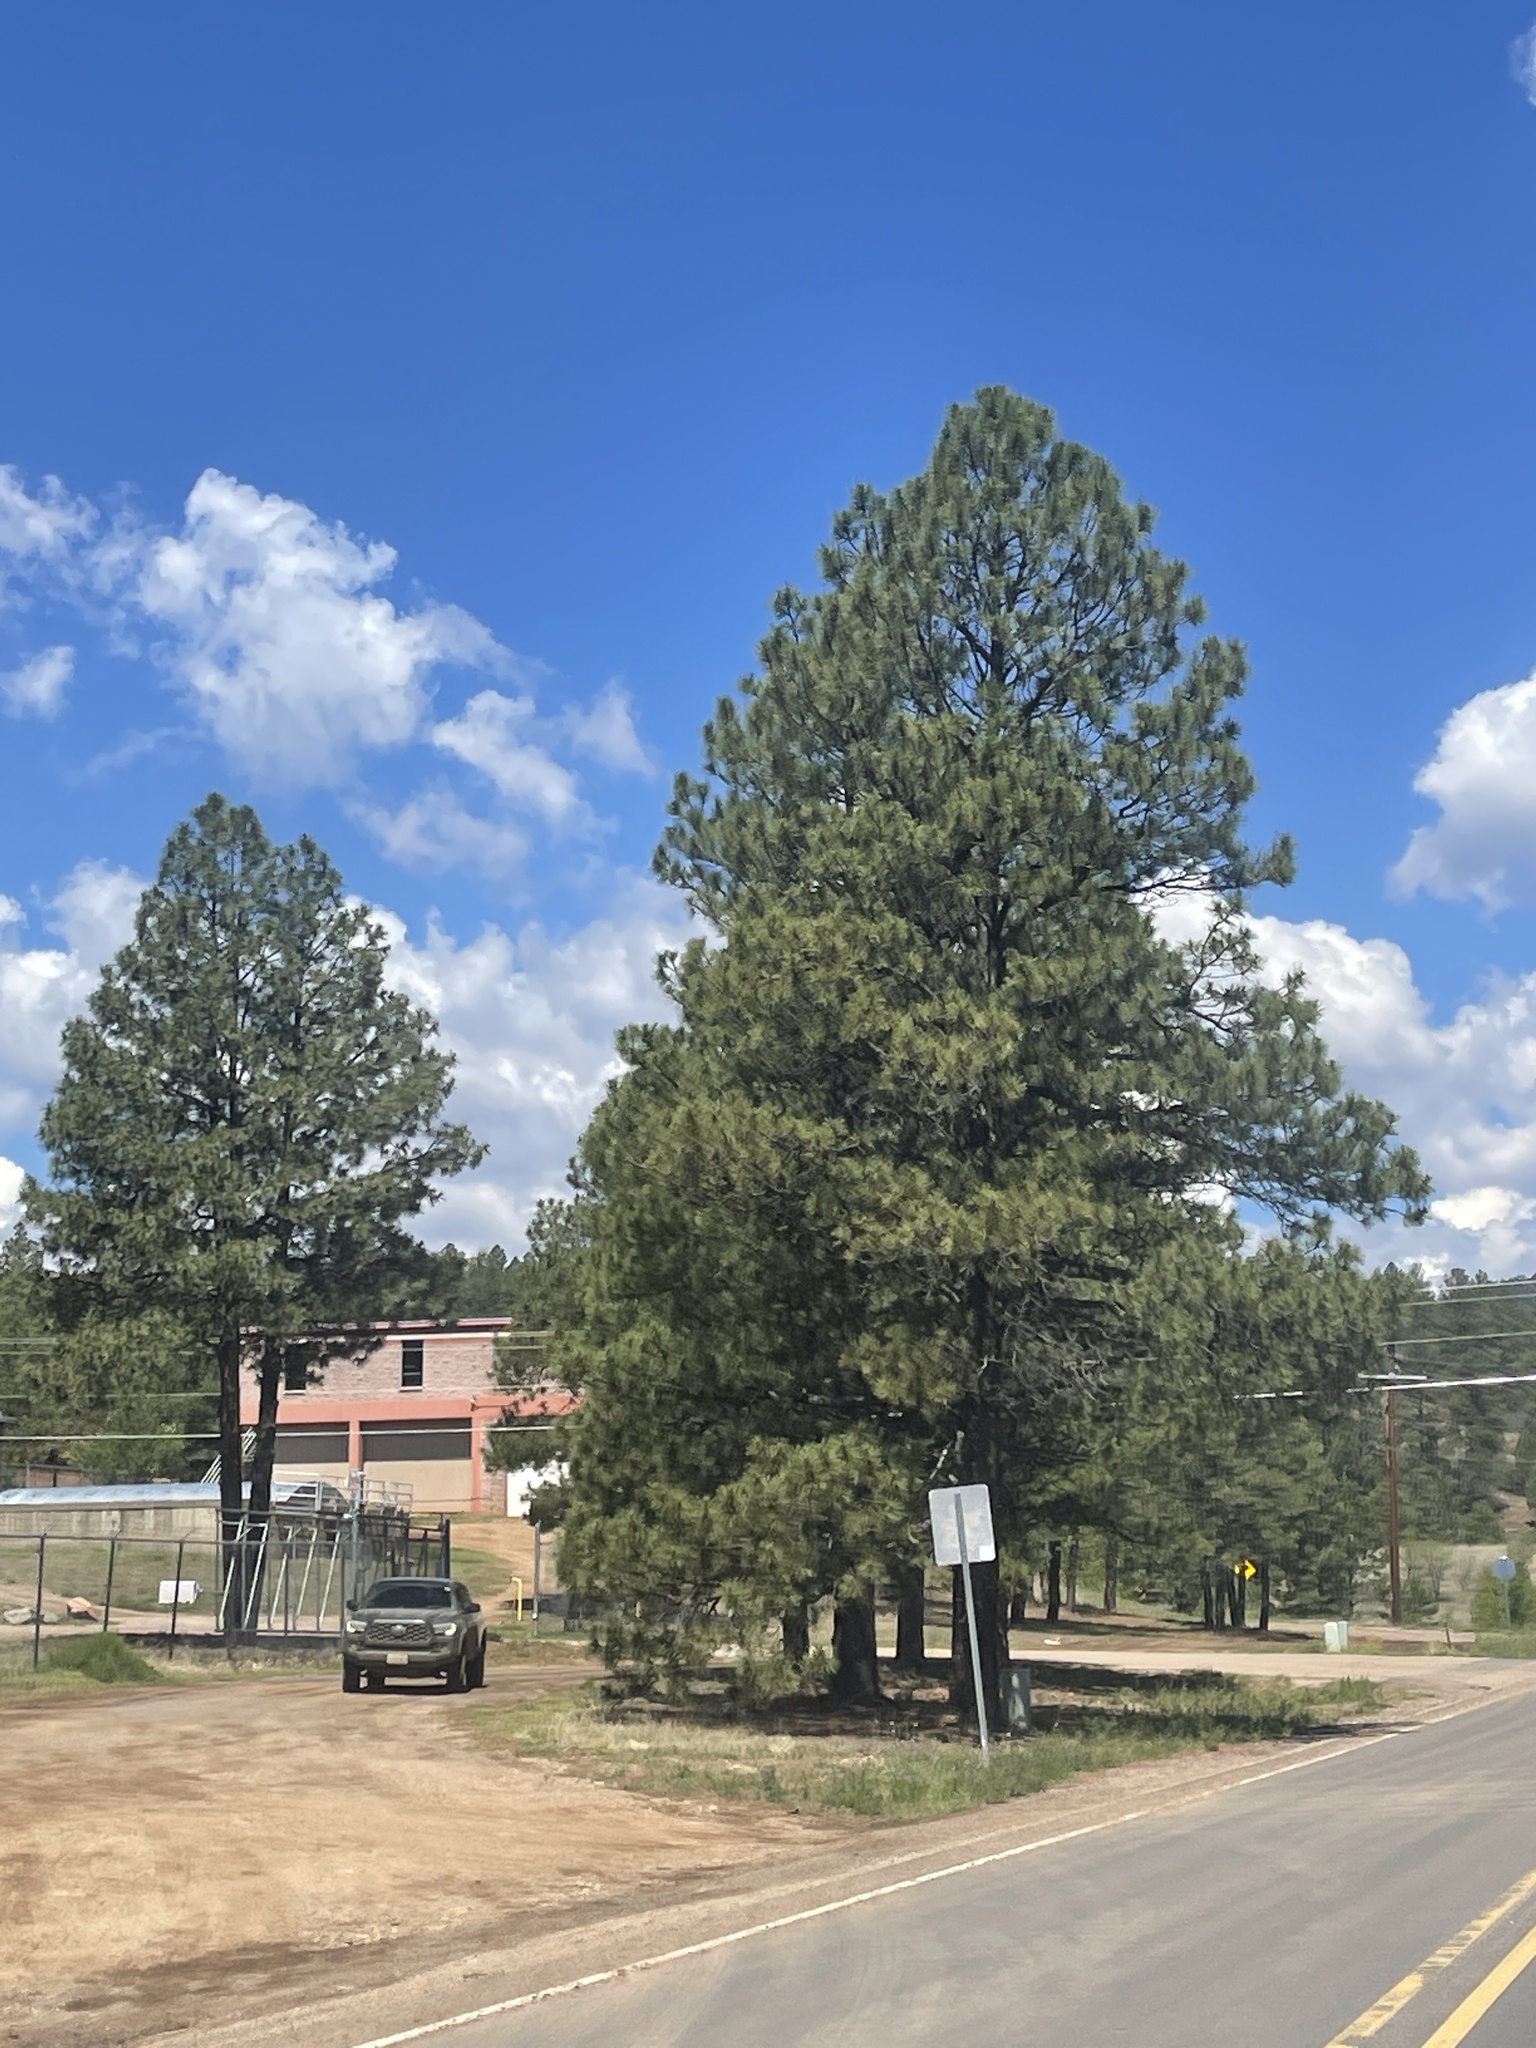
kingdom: Plantae
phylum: Tracheophyta
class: Pinopsida
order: Pinales
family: Pinaceae
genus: Pinus
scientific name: Pinus ponderosa
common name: Western yellow-pine
